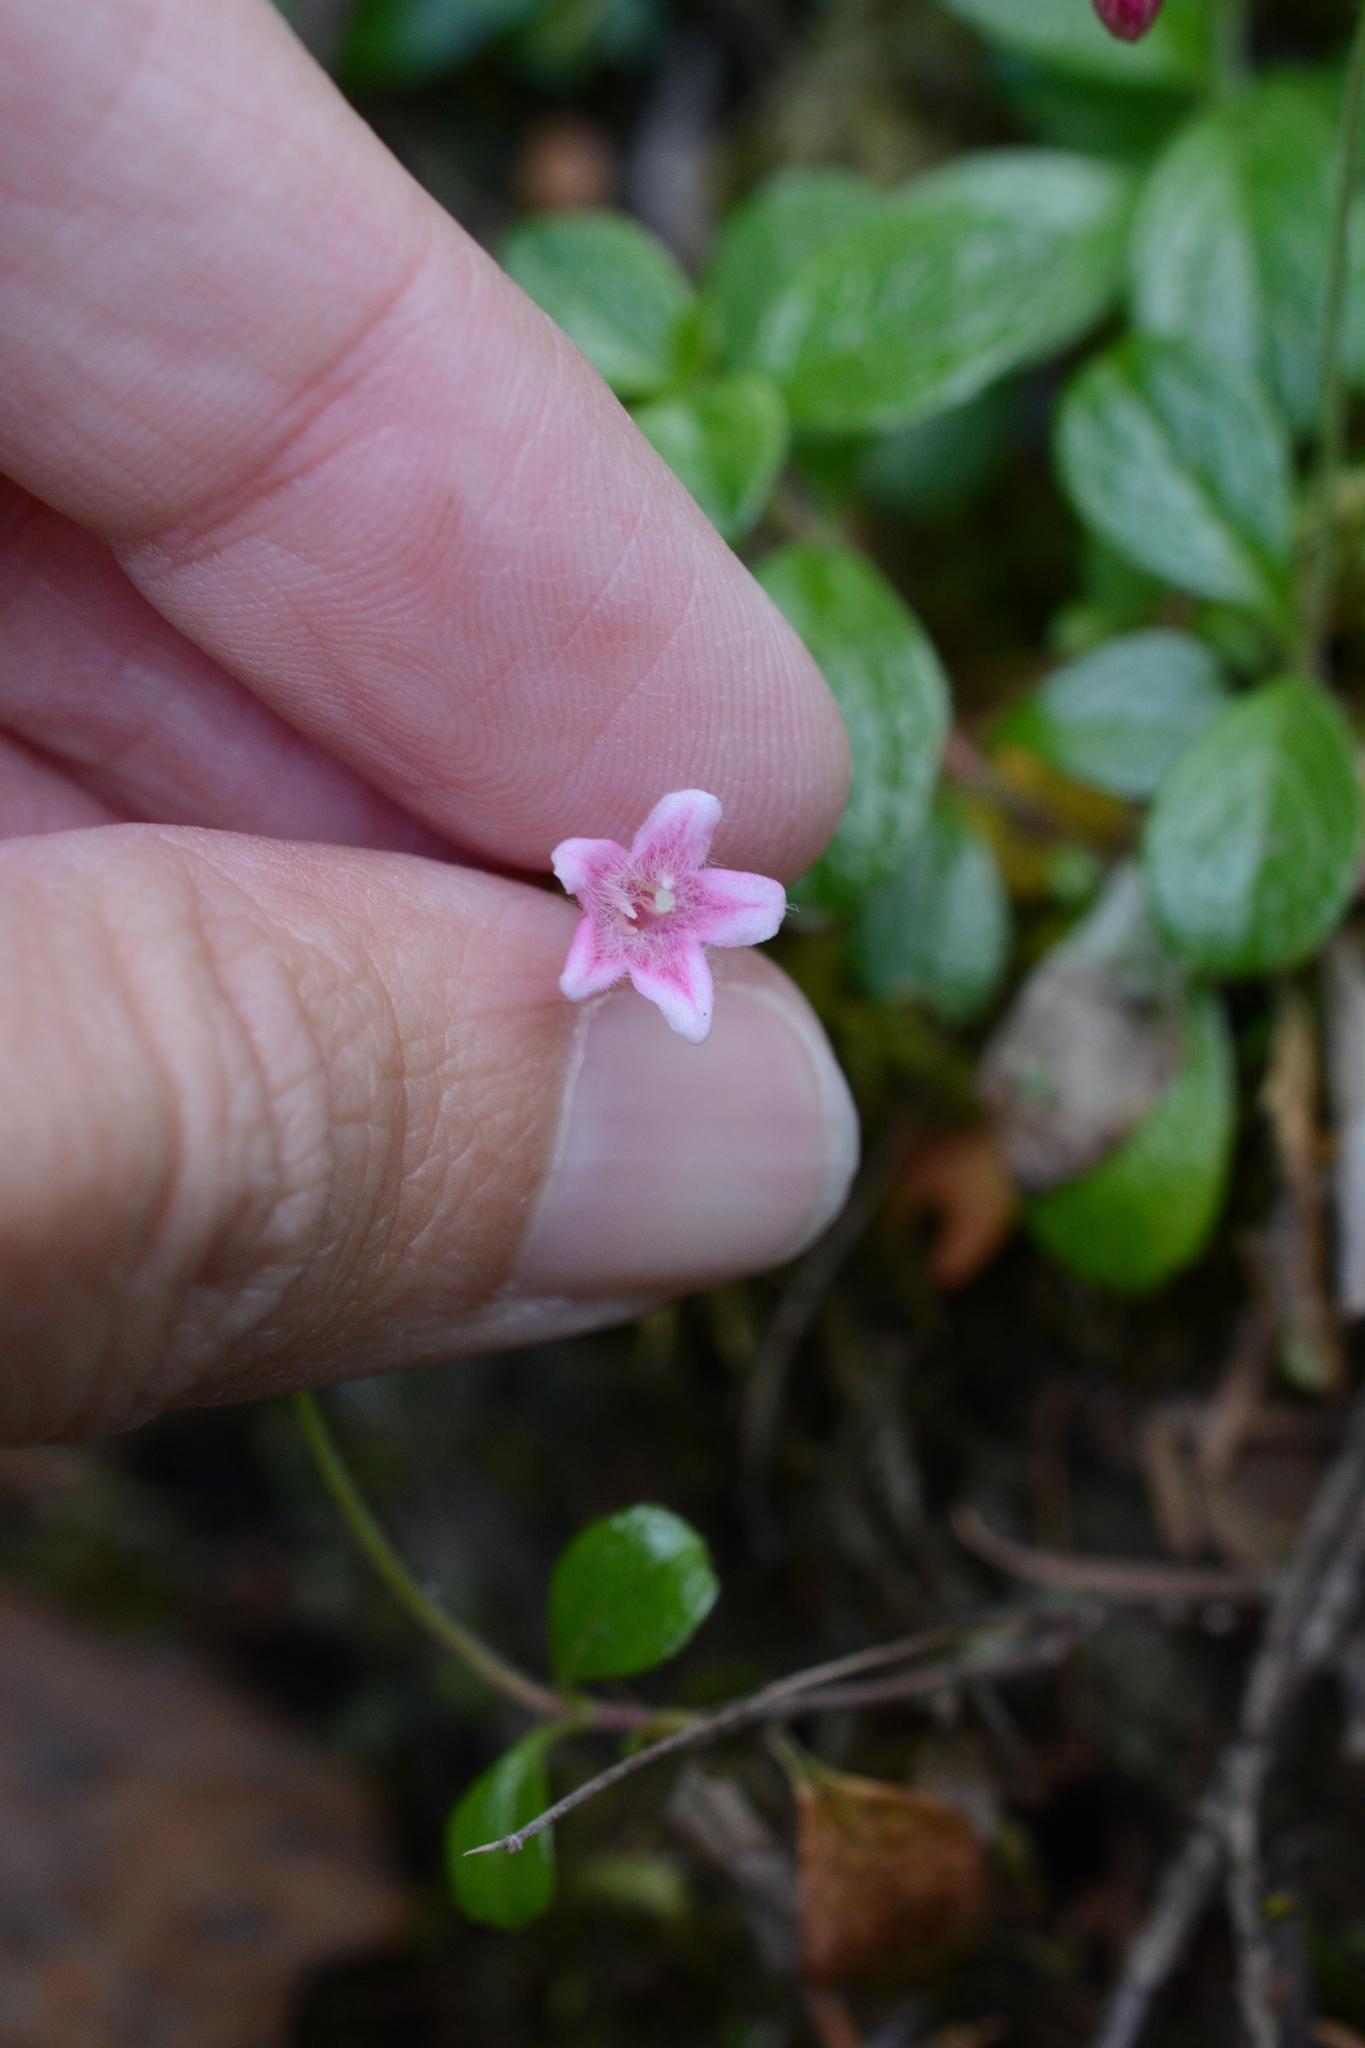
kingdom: Plantae
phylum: Tracheophyta
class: Magnoliopsida
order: Dipsacales
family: Caprifoliaceae
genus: Linnaea
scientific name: Linnaea borealis
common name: Twinflower
